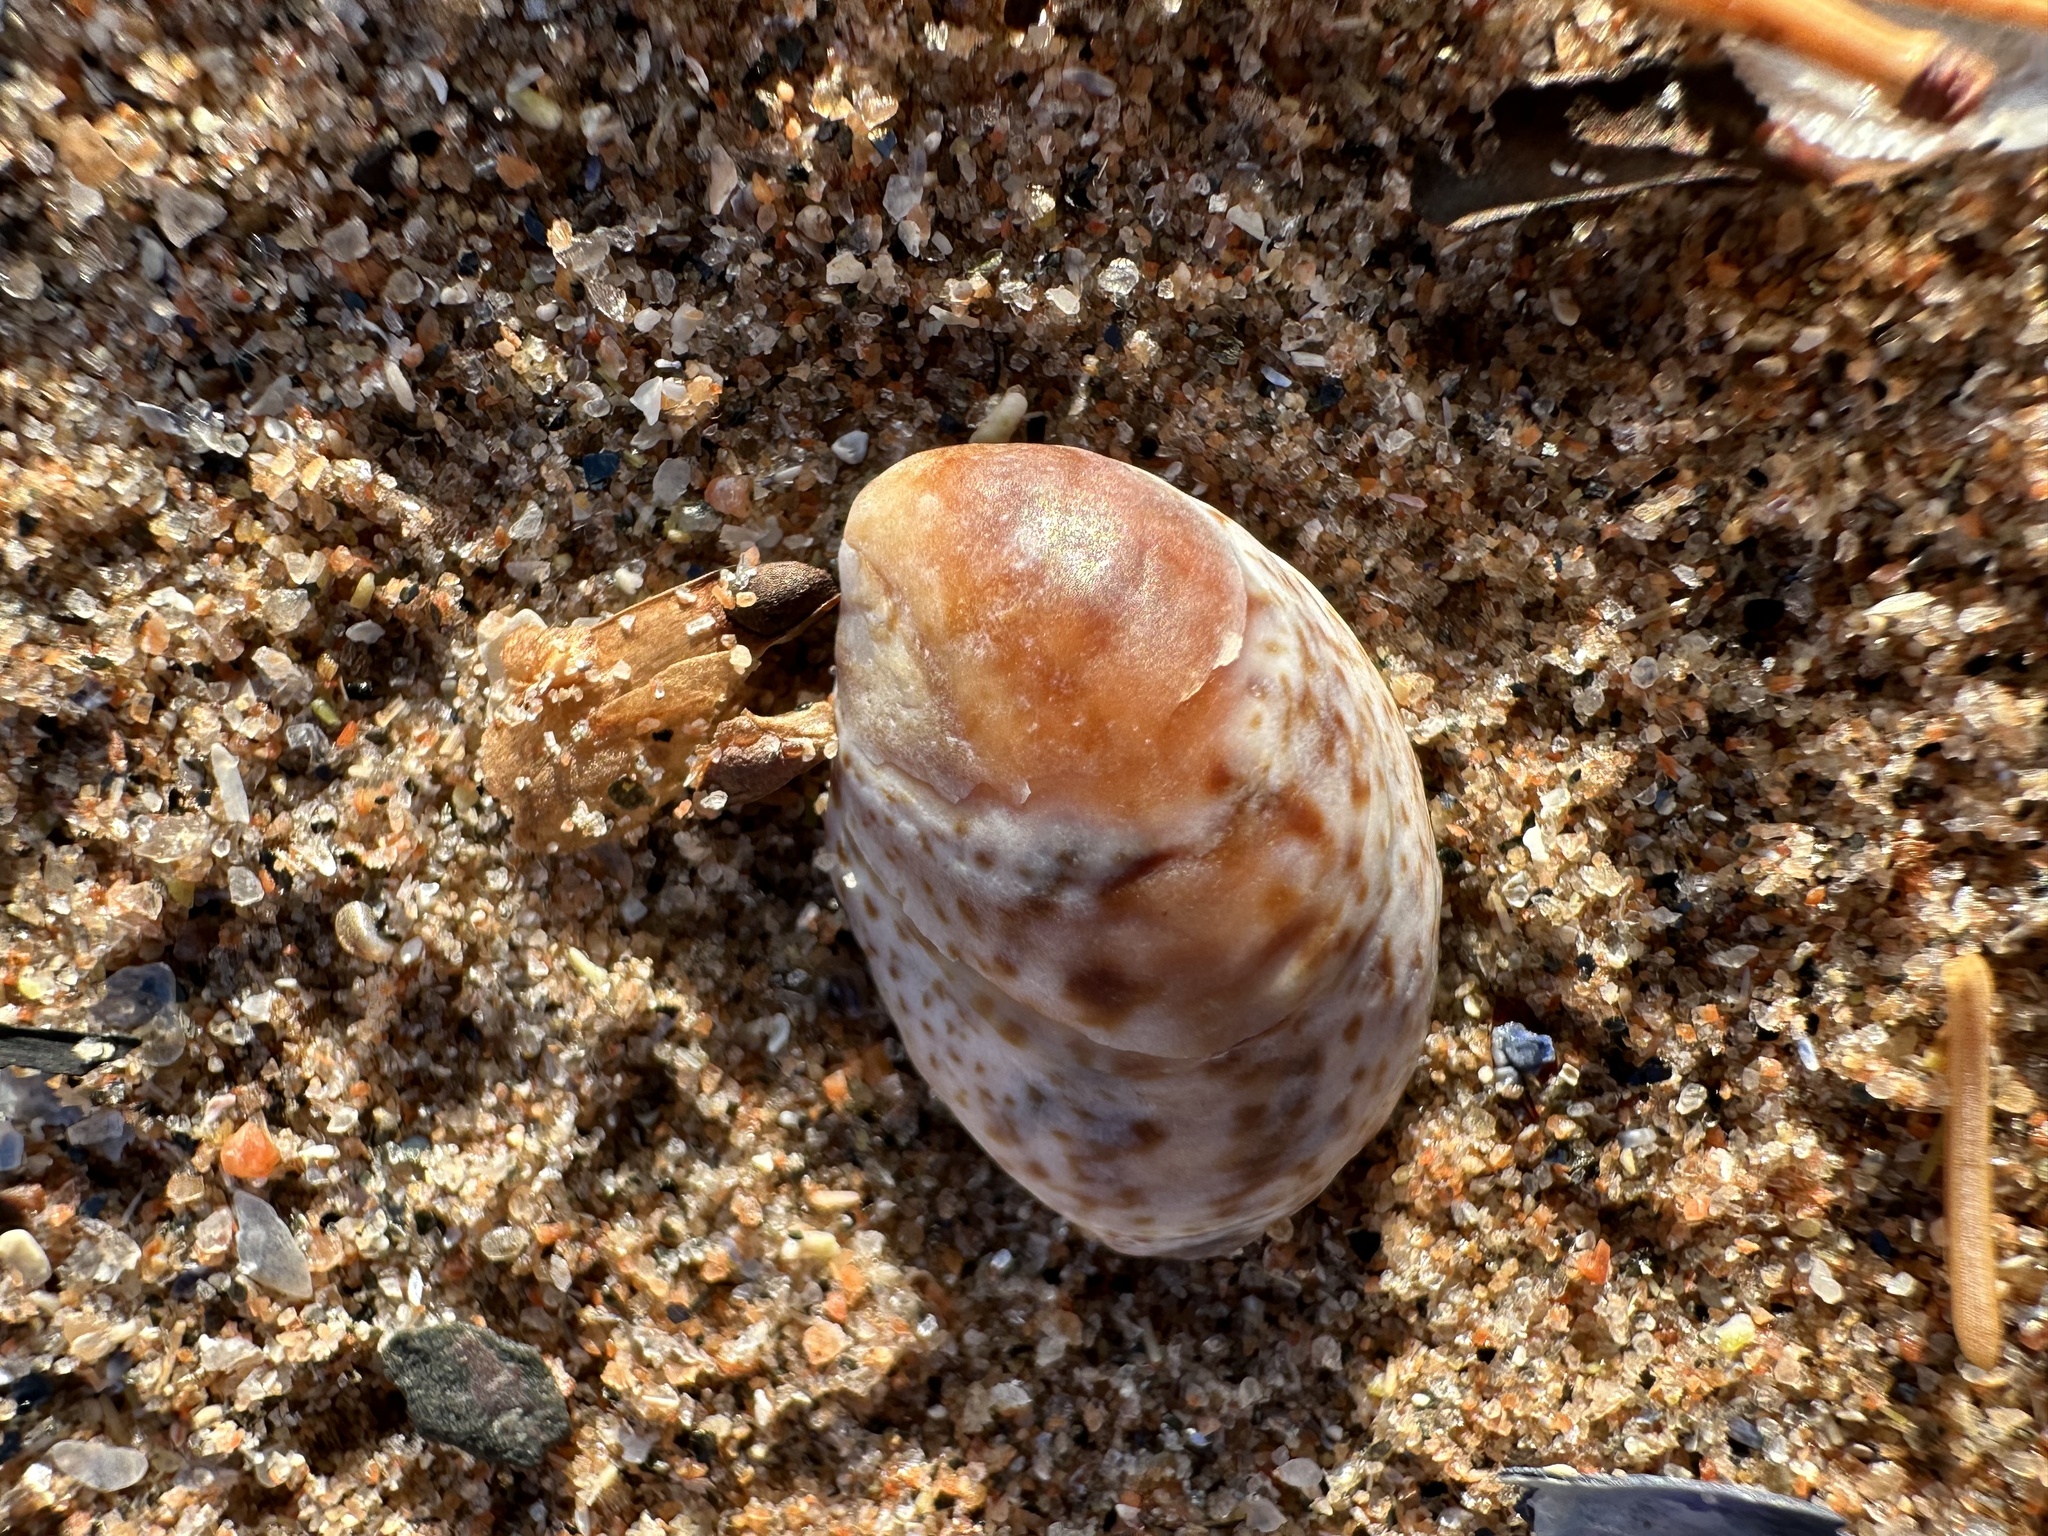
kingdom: Animalia
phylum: Mollusca
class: Gastropoda
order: Littorinimorpha
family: Calyptraeidae
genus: Crepidula
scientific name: Crepidula fornicata
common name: Slipper limpet
